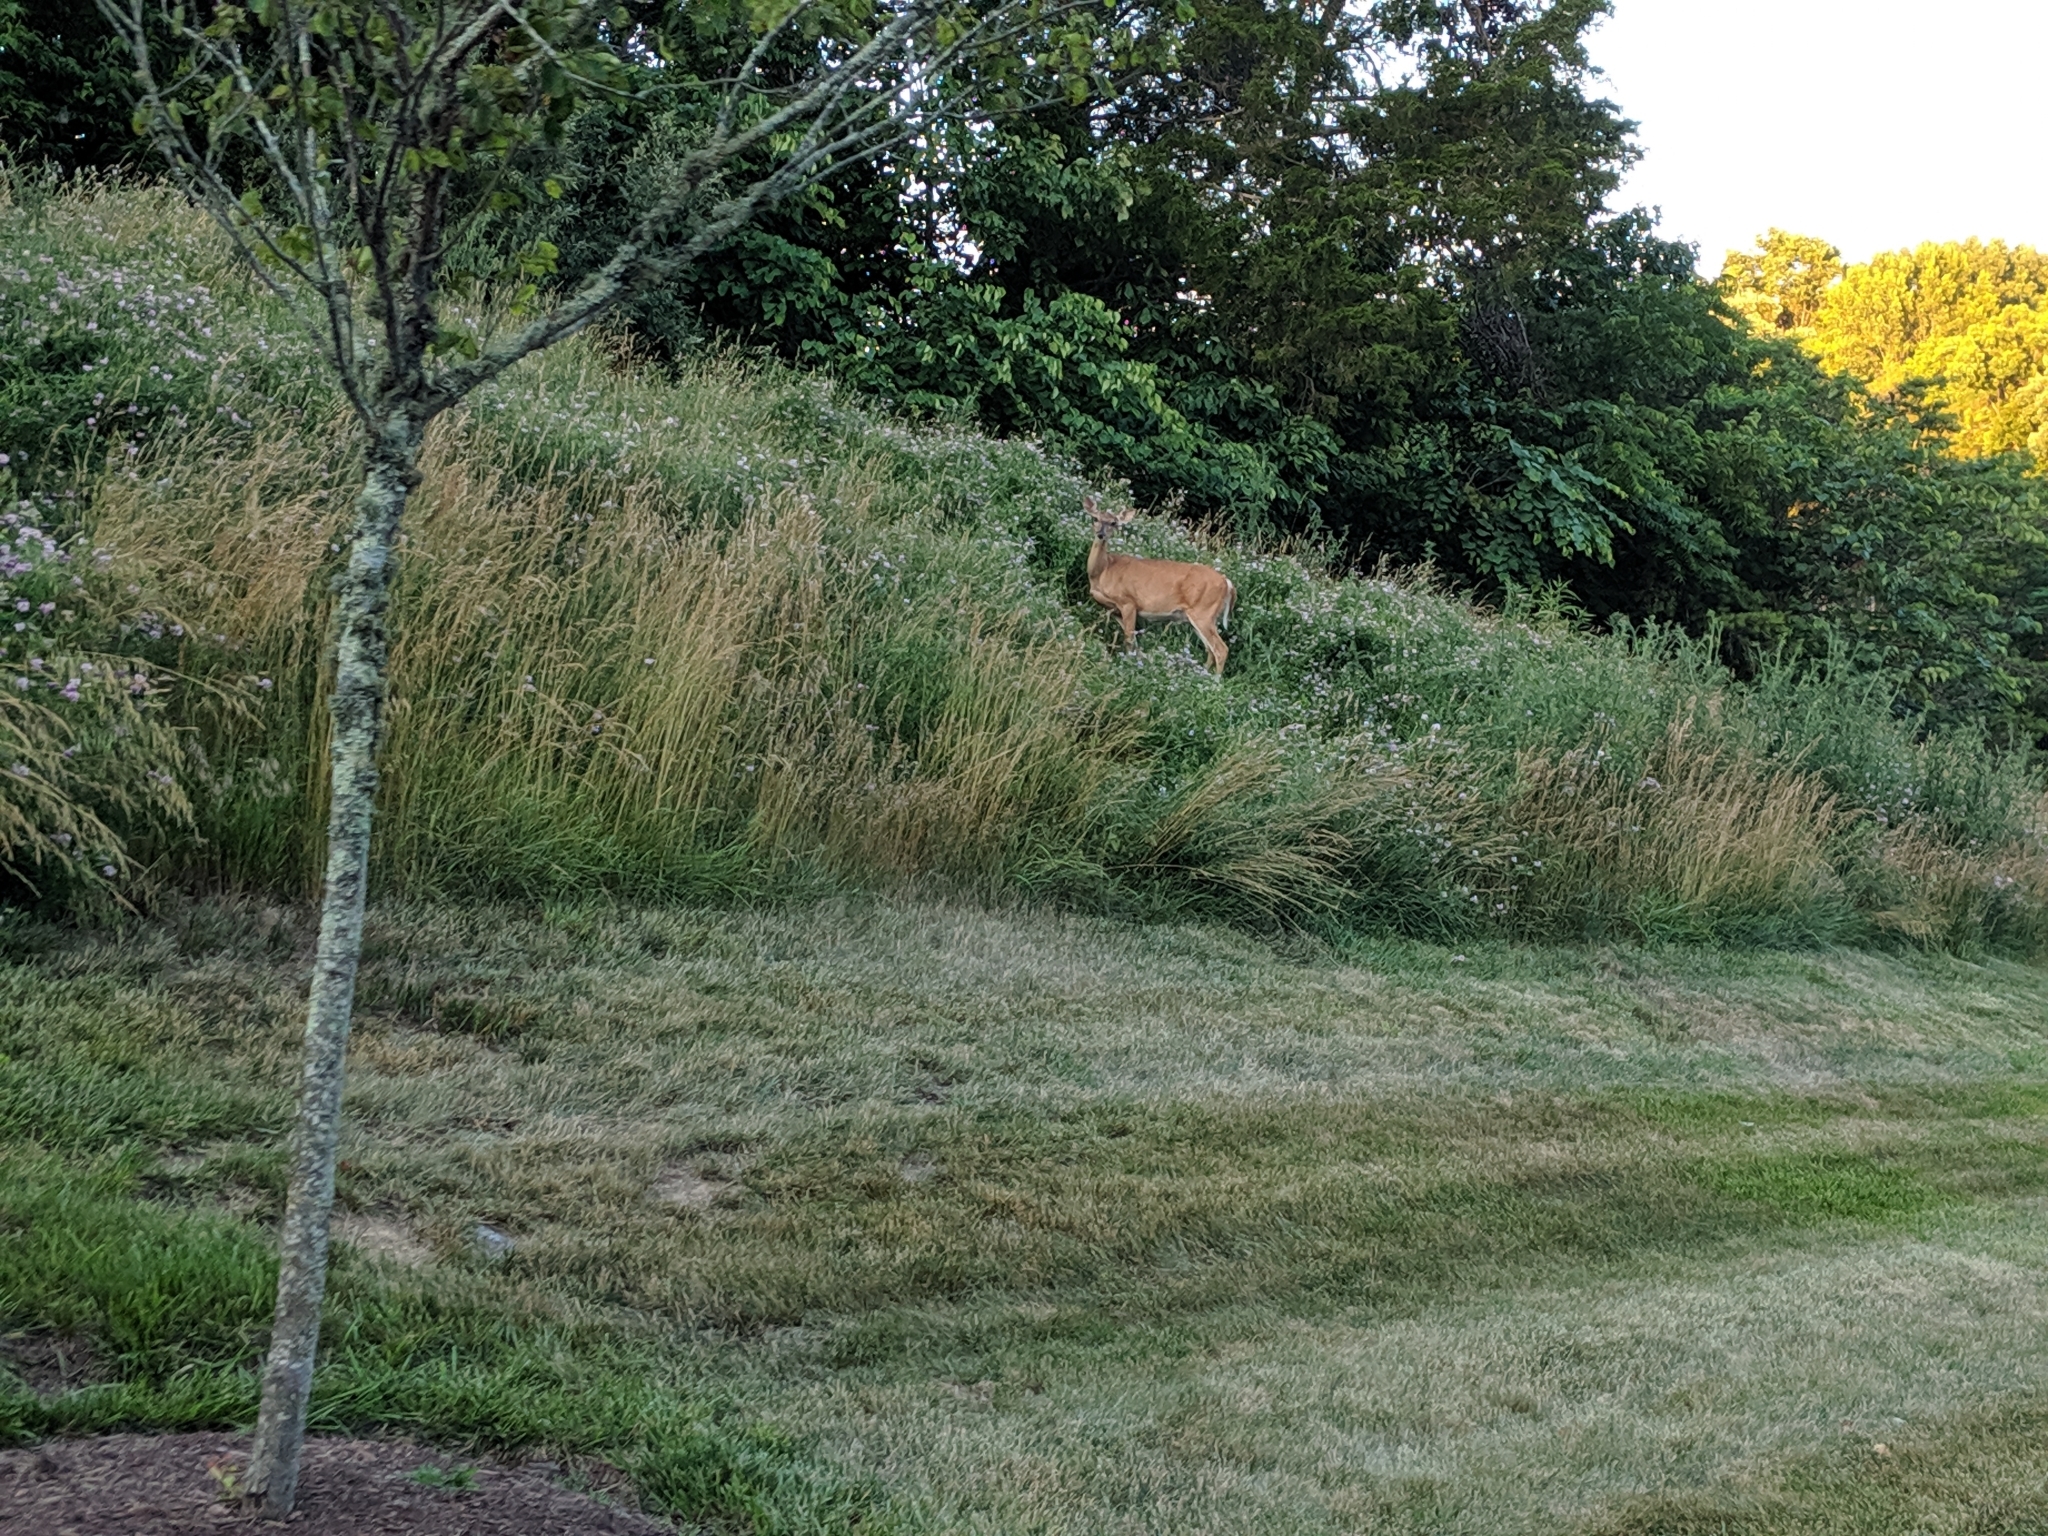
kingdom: Animalia
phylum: Chordata
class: Mammalia
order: Artiodactyla
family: Cervidae
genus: Odocoileus
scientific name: Odocoileus virginianus
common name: White-tailed deer
